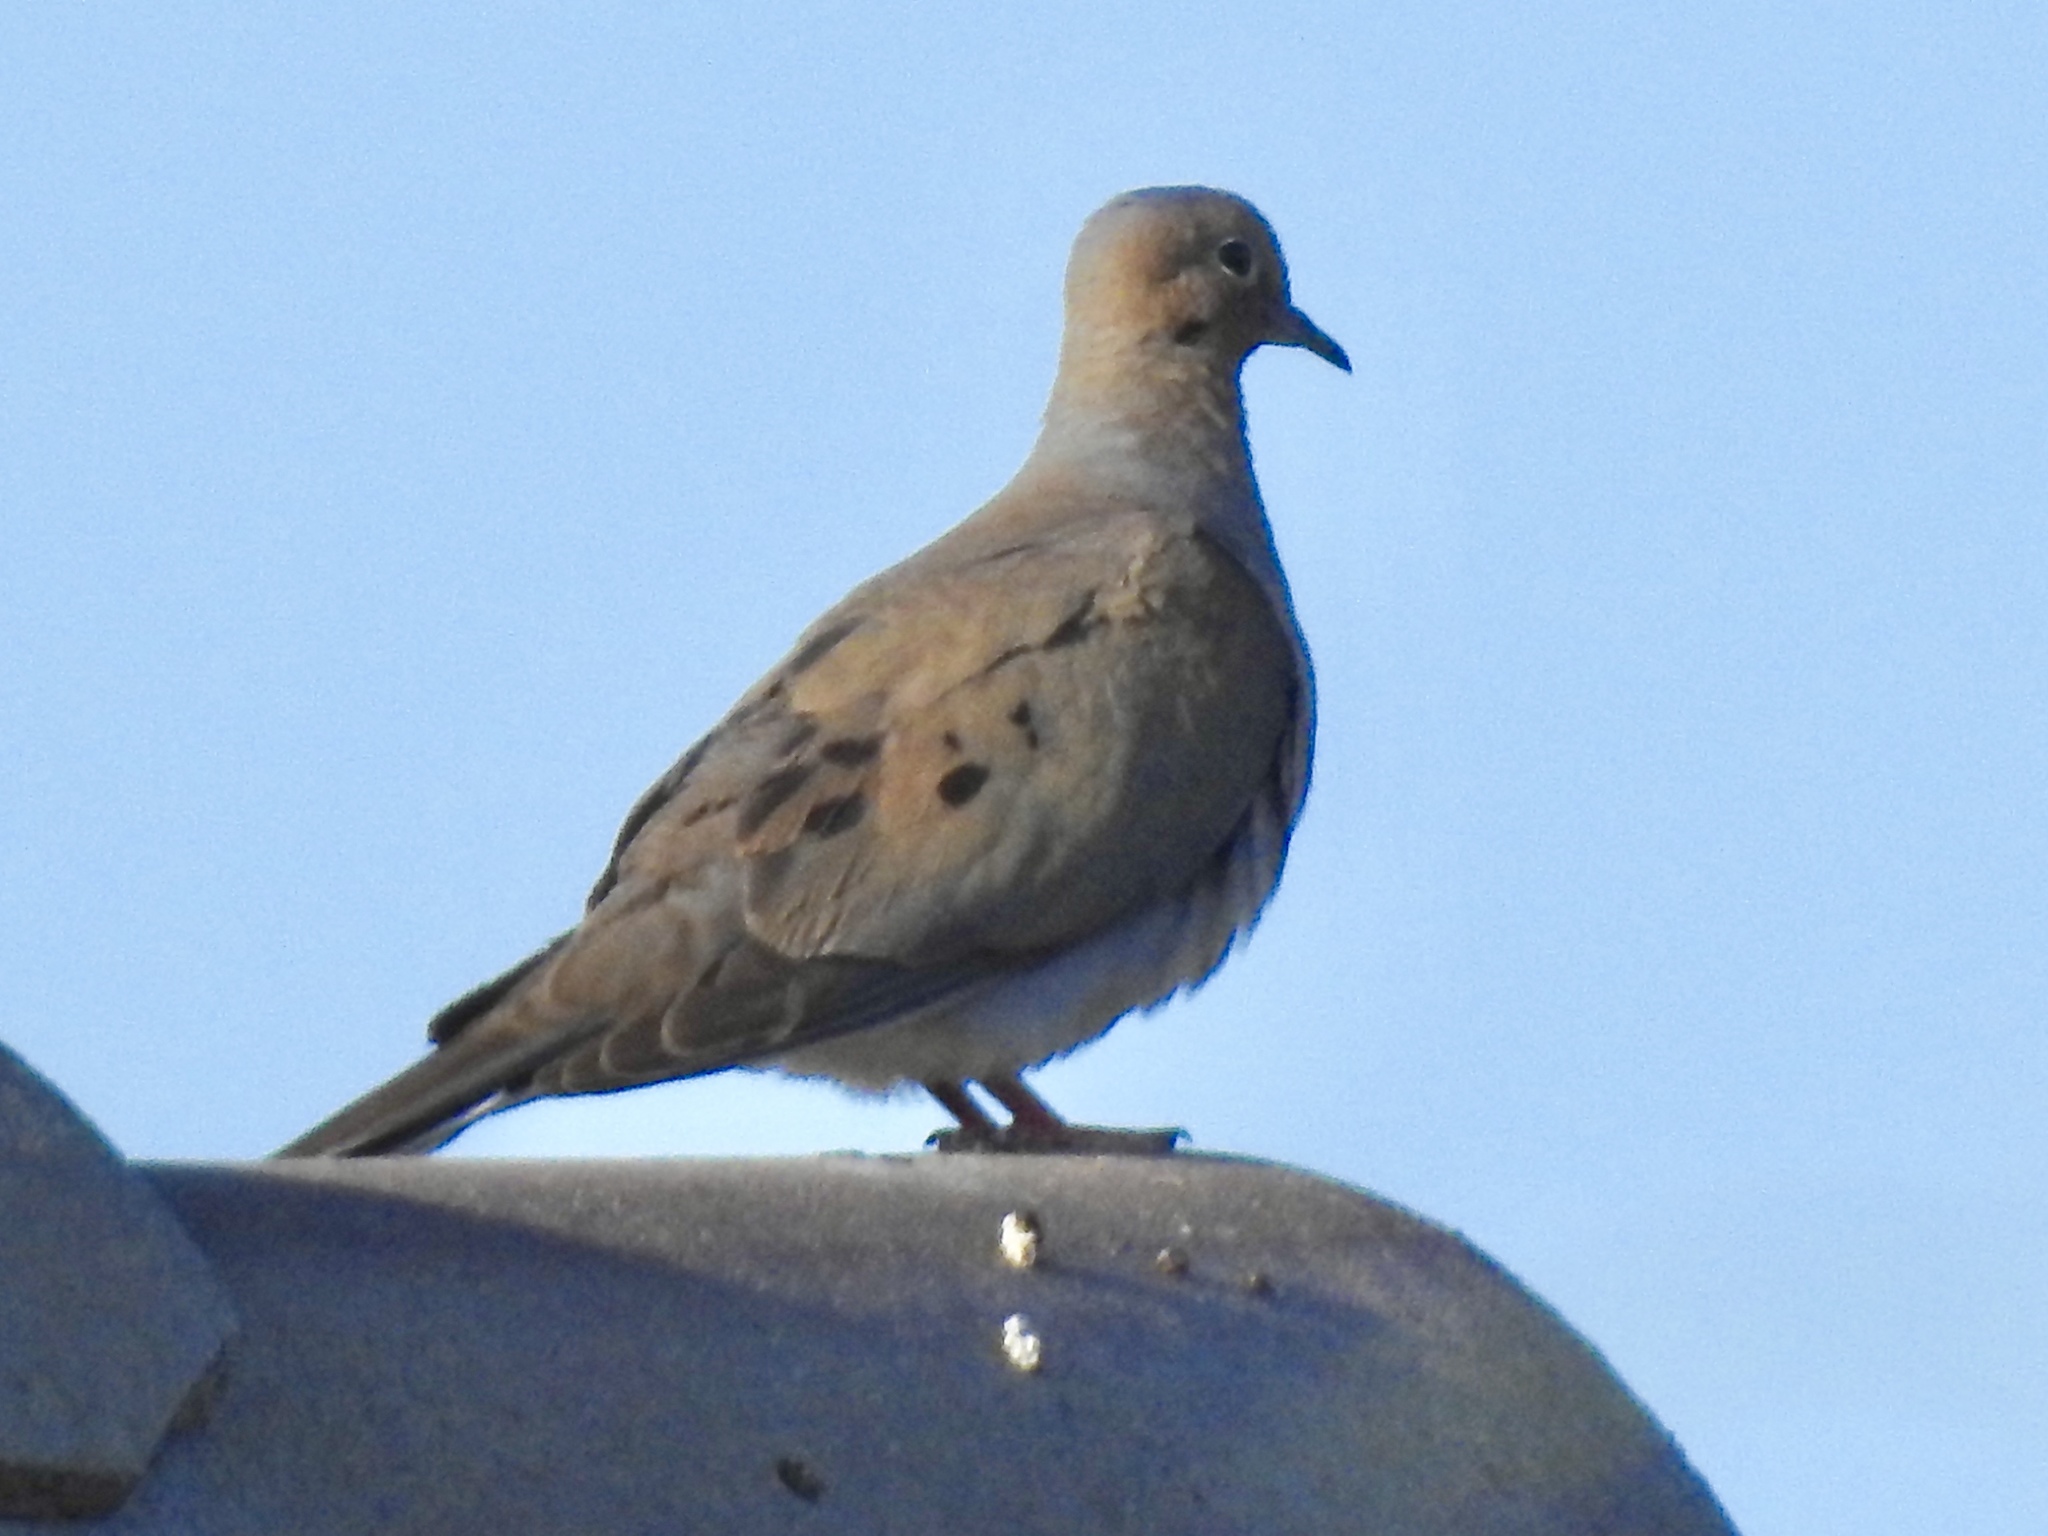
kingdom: Animalia
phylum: Chordata
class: Aves
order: Columbiformes
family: Columbidae
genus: Zenaida
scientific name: Zenaida macroura
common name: Mourning dove
